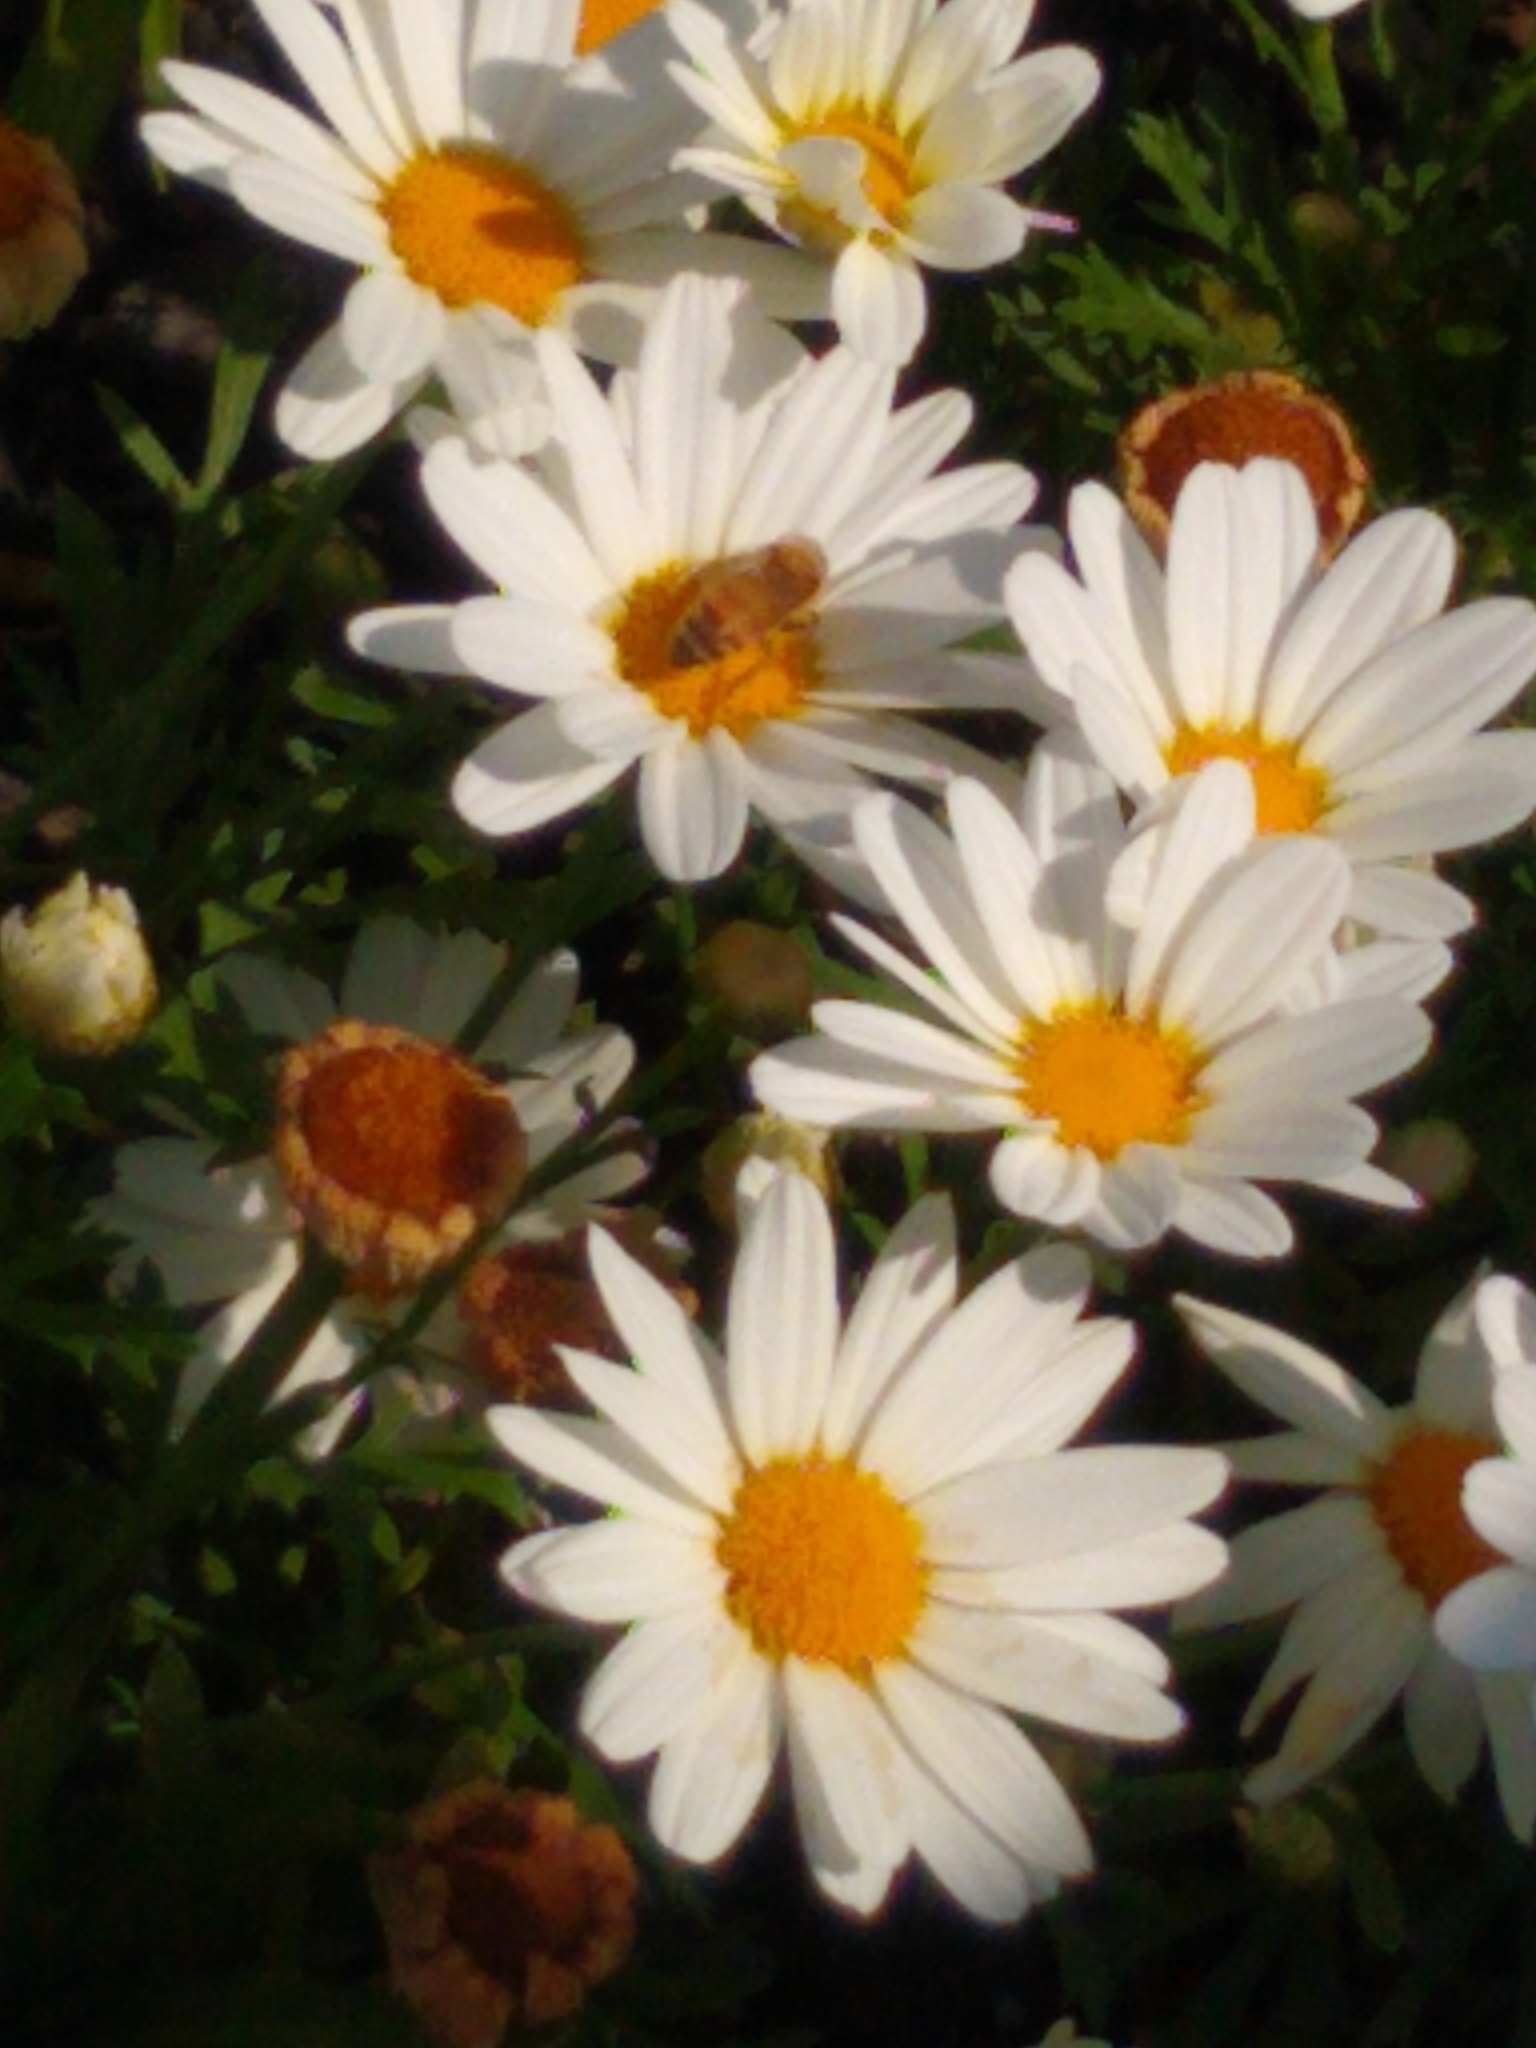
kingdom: Animalia
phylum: Arthropoda
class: Insecta
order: Hymenoptera
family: Apidae
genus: Apis
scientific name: Apis mellifera
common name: Honey bee
